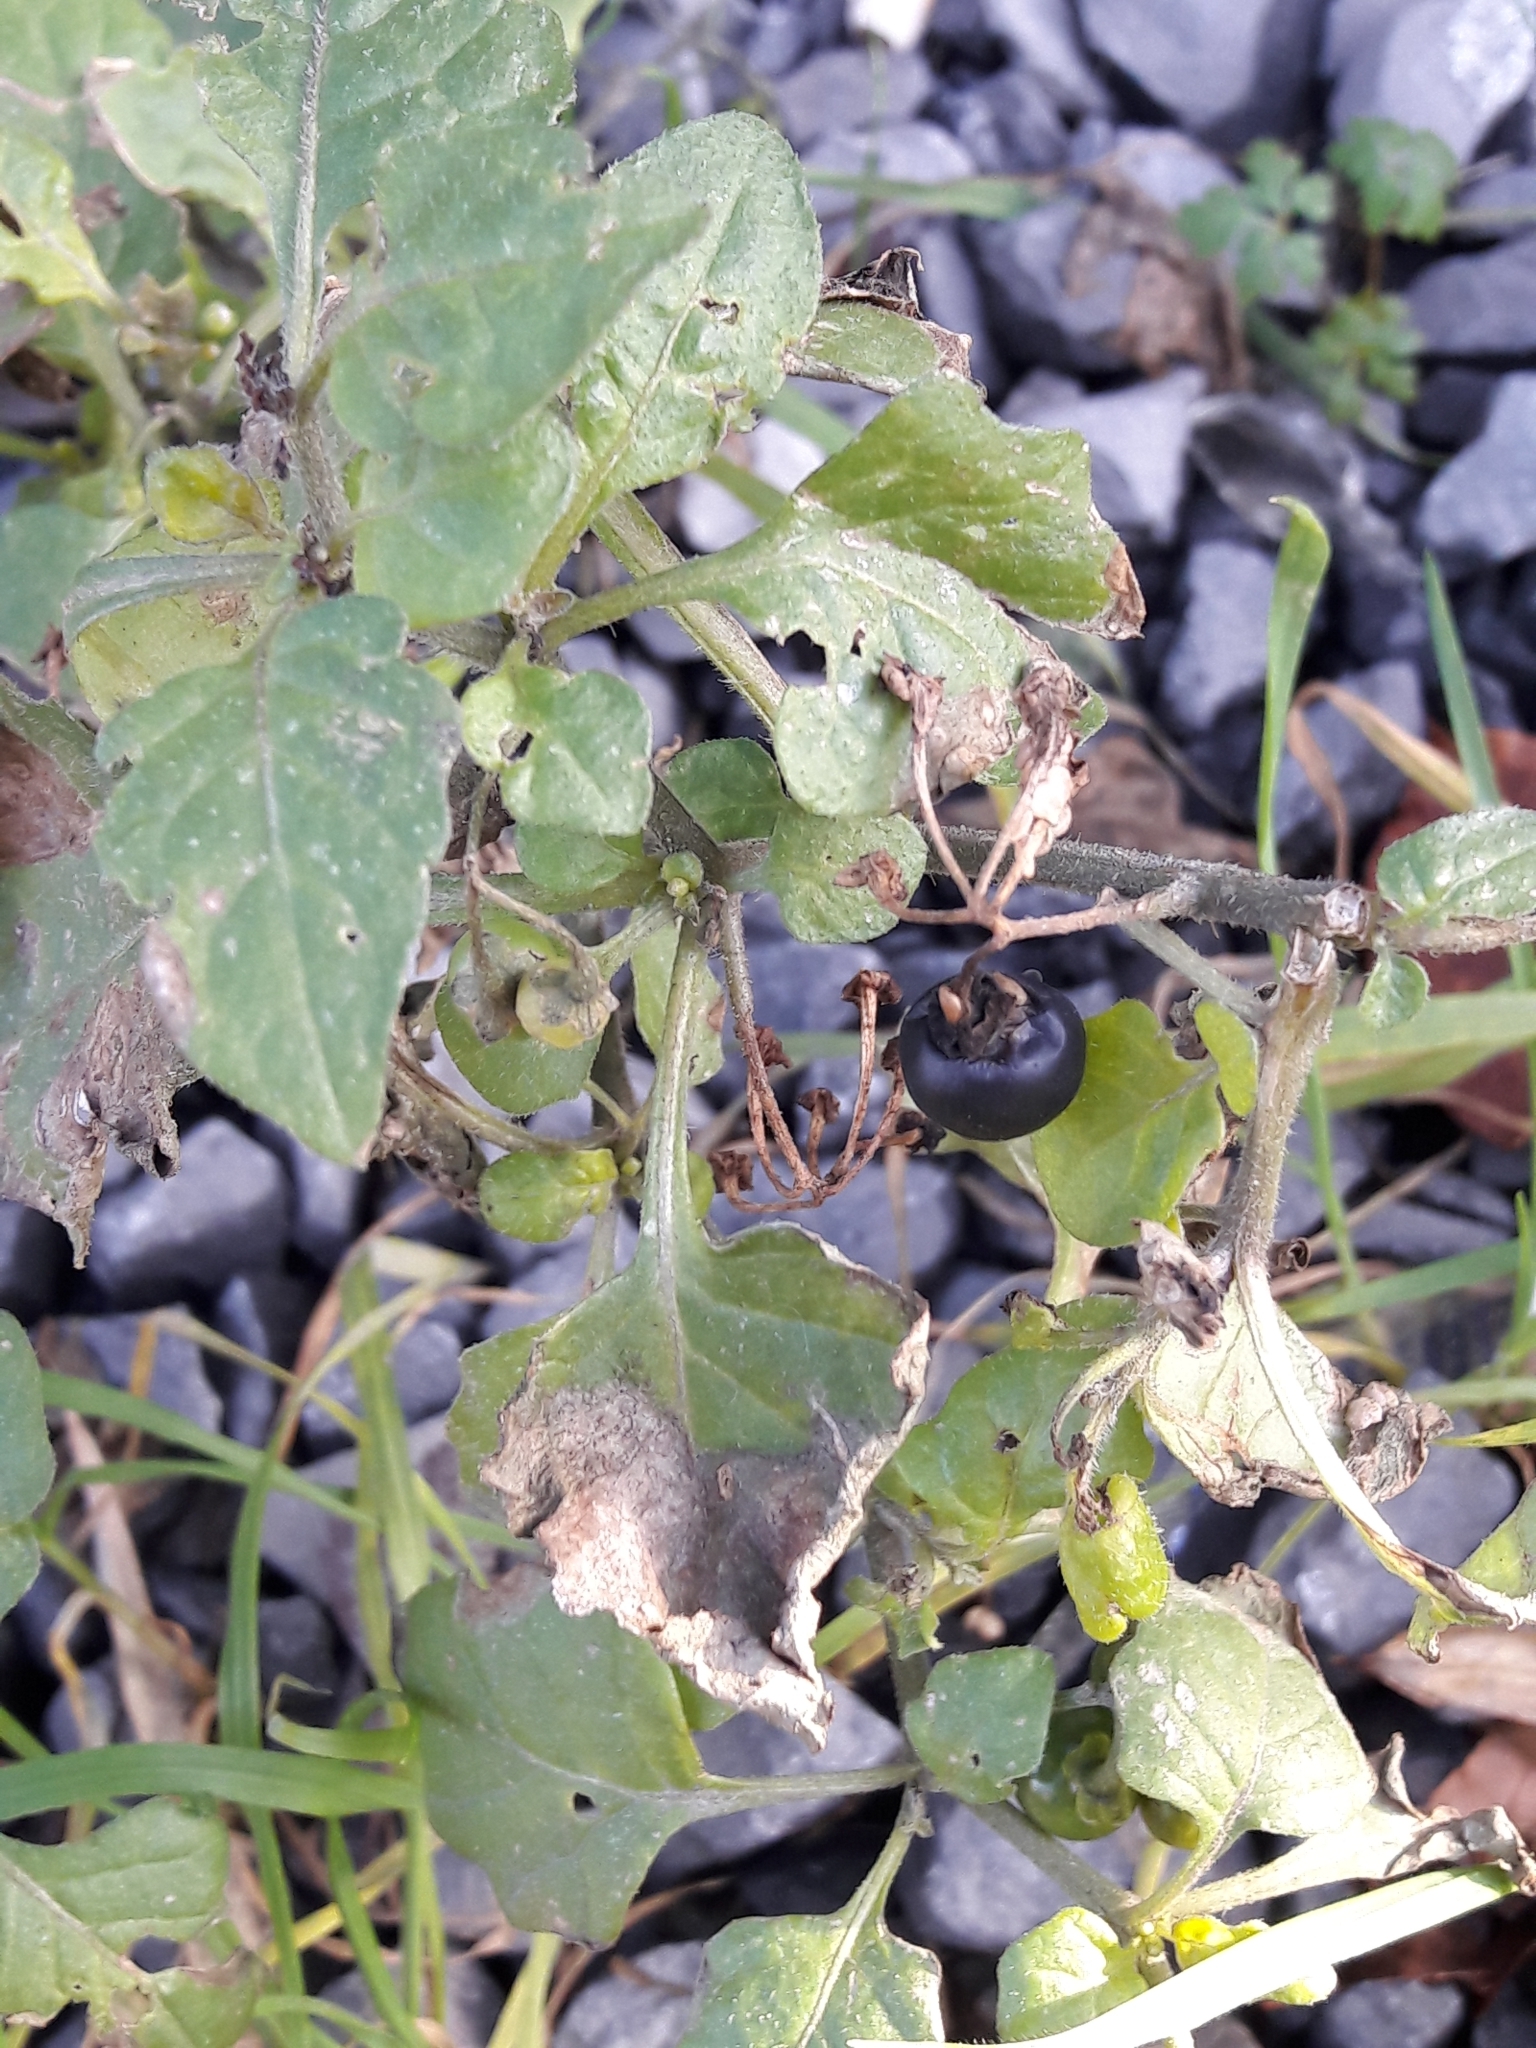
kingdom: Plantae
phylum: Tracheophyta
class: Magnoliopsida
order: Solanales
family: Solanaceae
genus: Solanum
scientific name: Solanum nigrum
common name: Black nightshade
